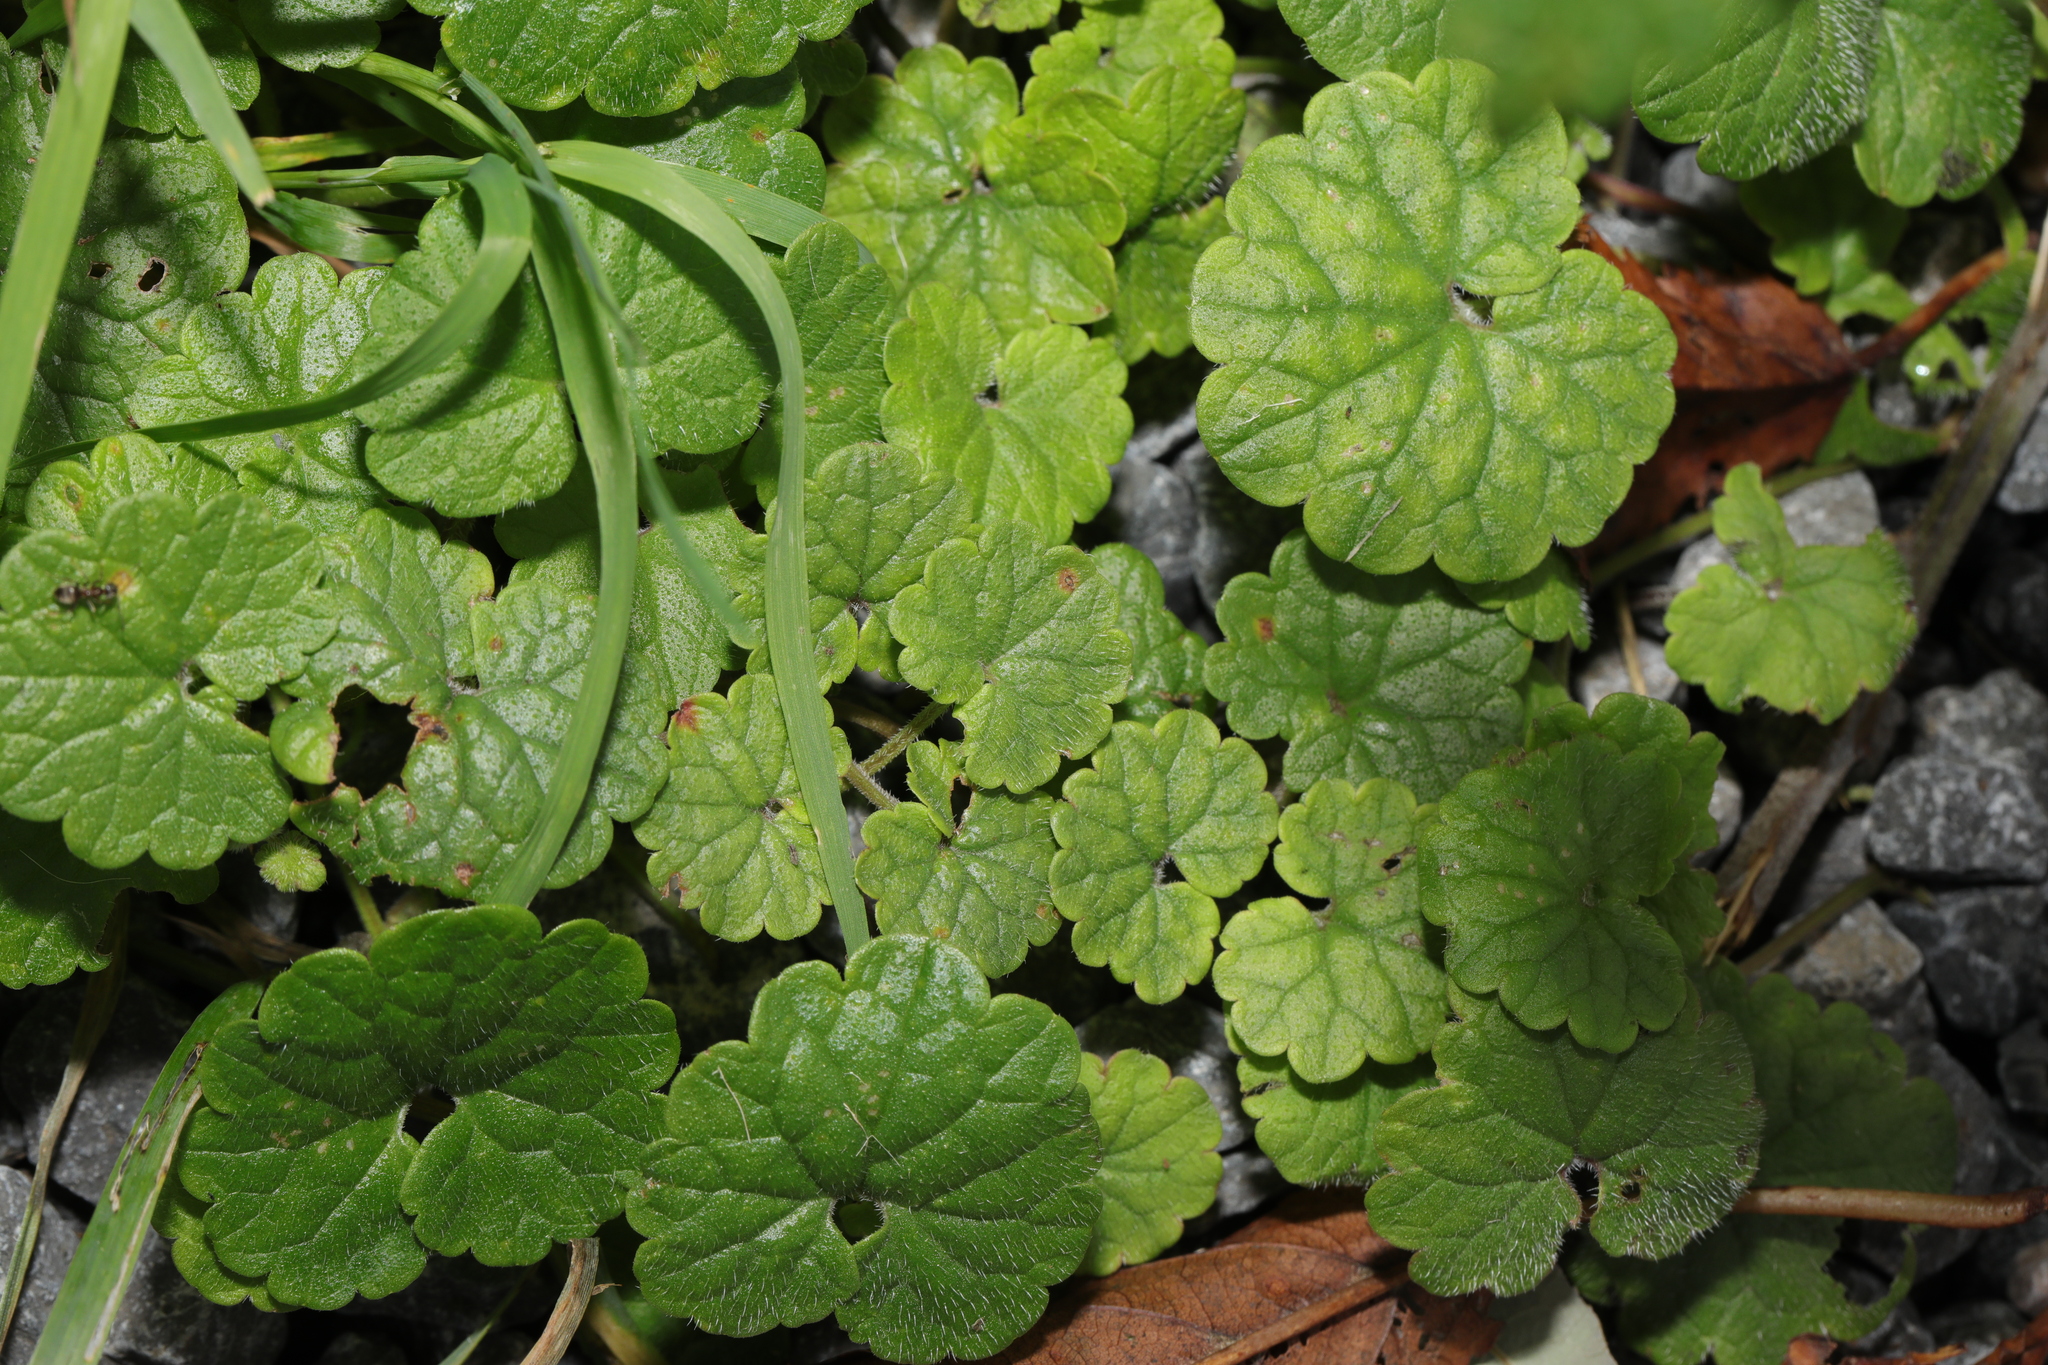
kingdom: Plantae
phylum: Tracheophyta
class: Magnoliopsida
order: Lamiales
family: Lamiaceae
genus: Glechoma
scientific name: Glechoma hederacea
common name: Ground ivy
